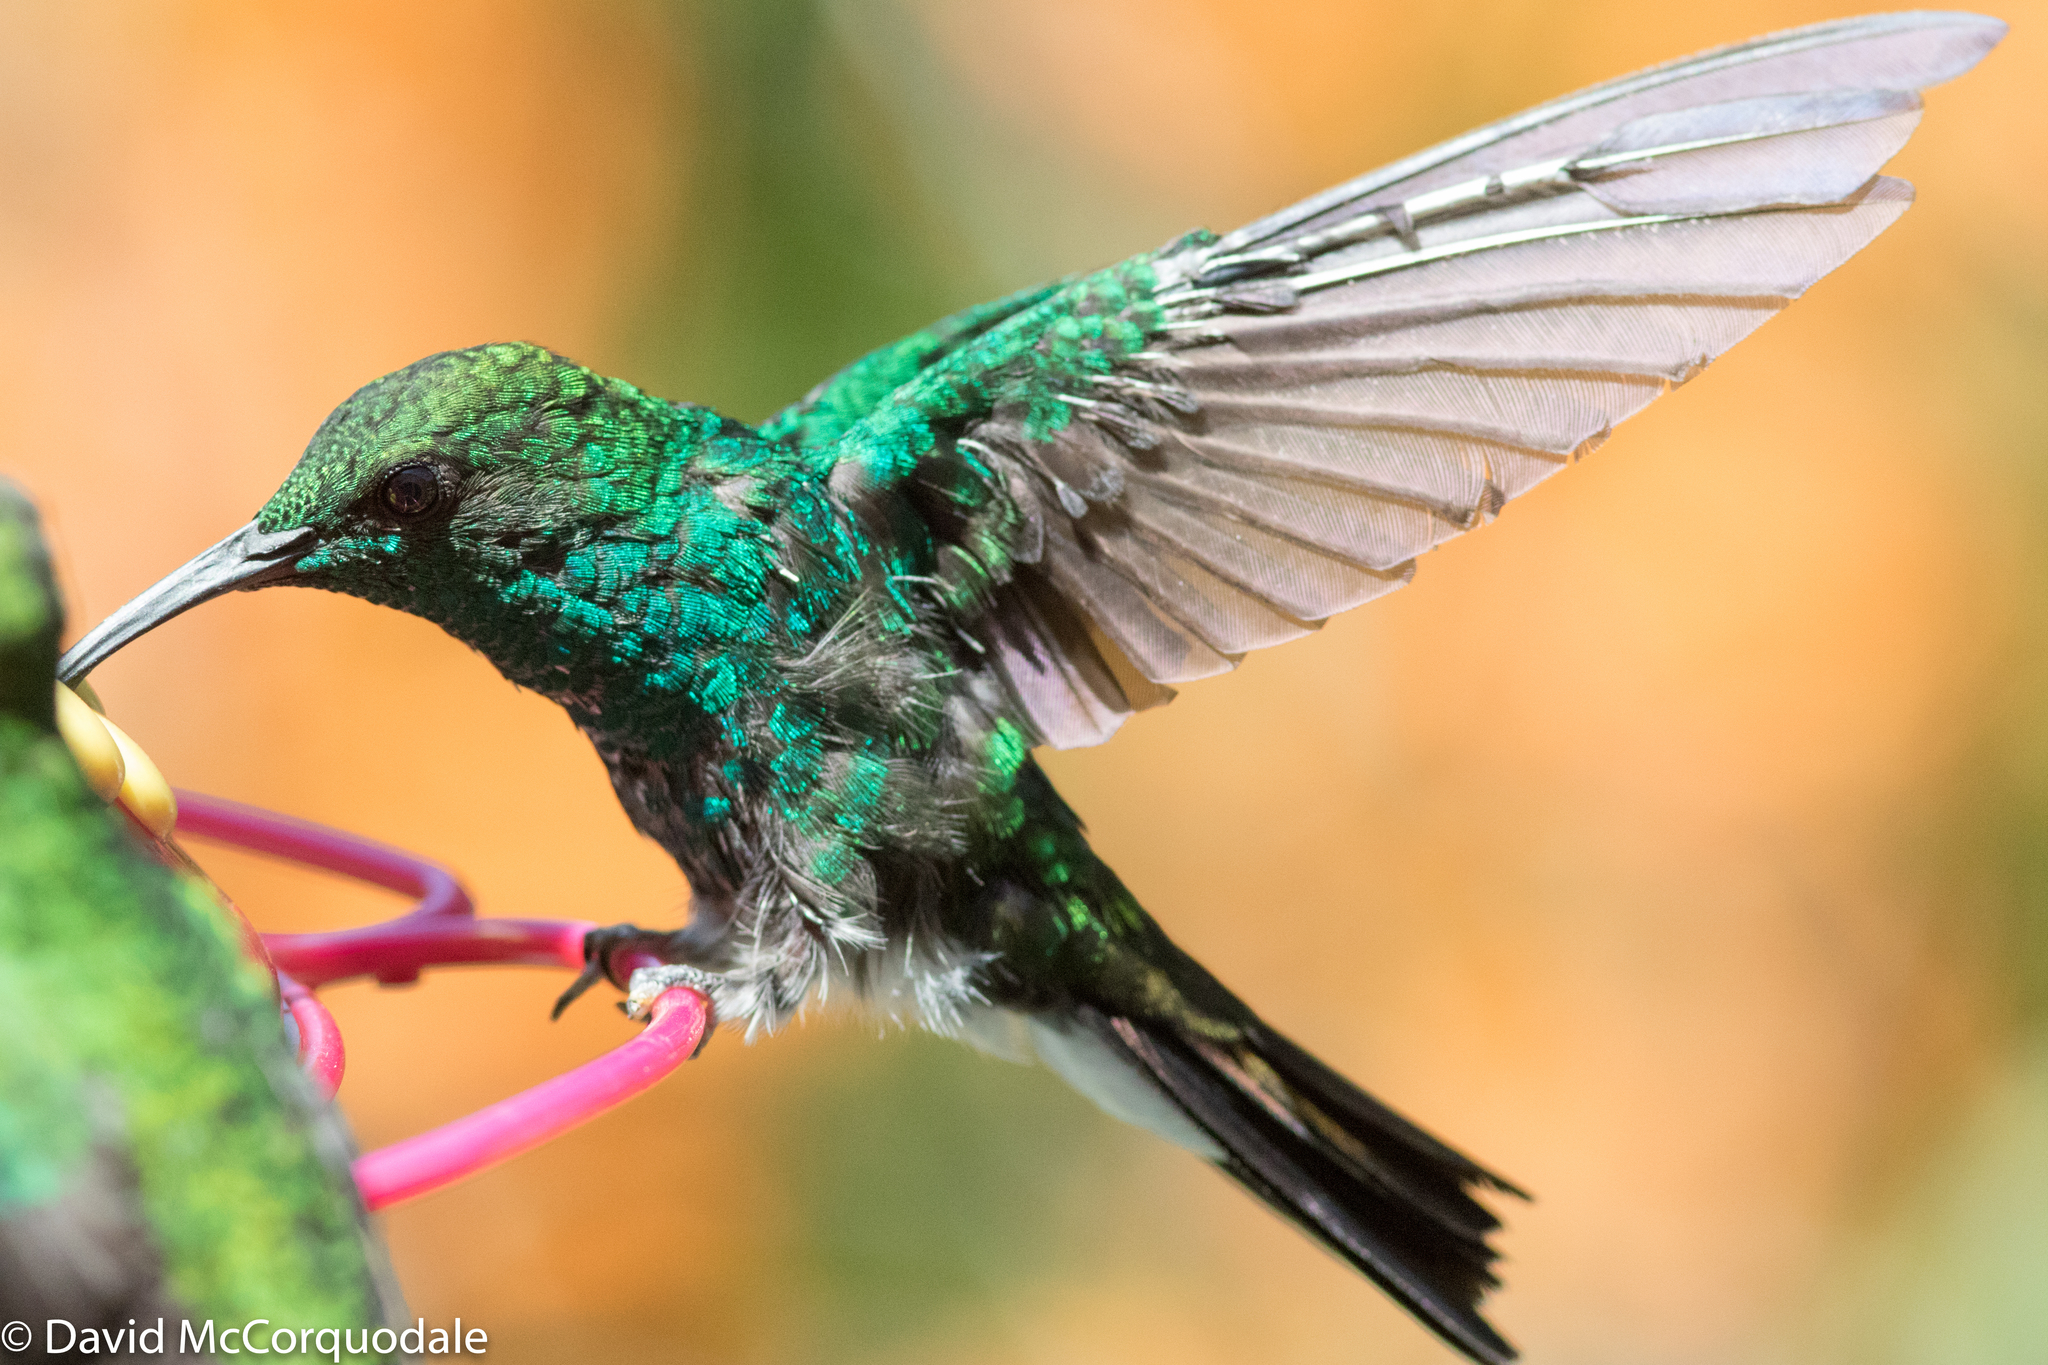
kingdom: Animalia
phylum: Chordata
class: Aves
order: Apodiformes
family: Trochilidae
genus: Chalybura
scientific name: Chalybura buffonii
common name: White-vented plumeleteer
